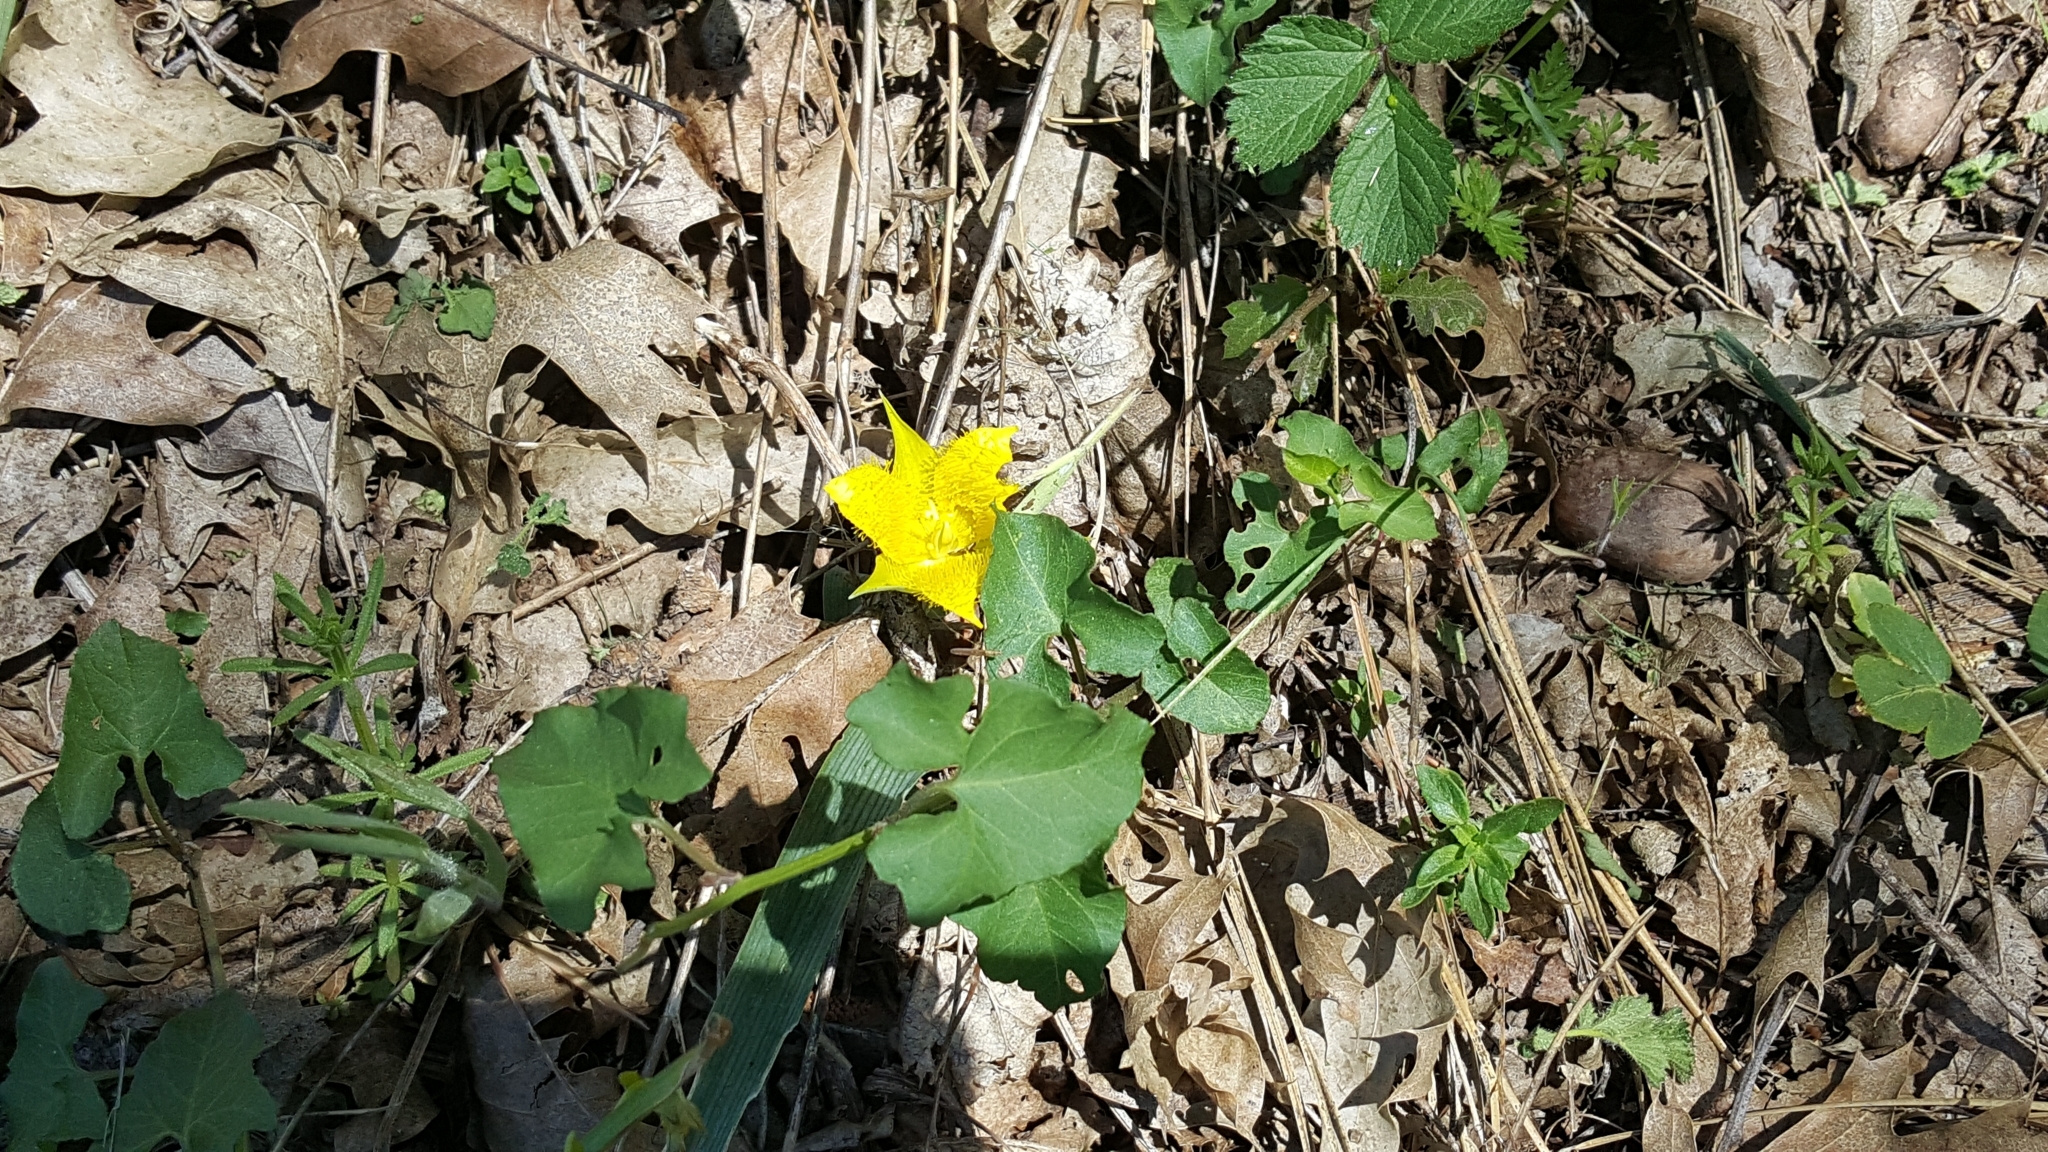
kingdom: Plantae
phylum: Tracheophyta
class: Liliopsida
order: Liliales
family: Liliaceae
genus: Calochortus
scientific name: Calochortus monophyllus
